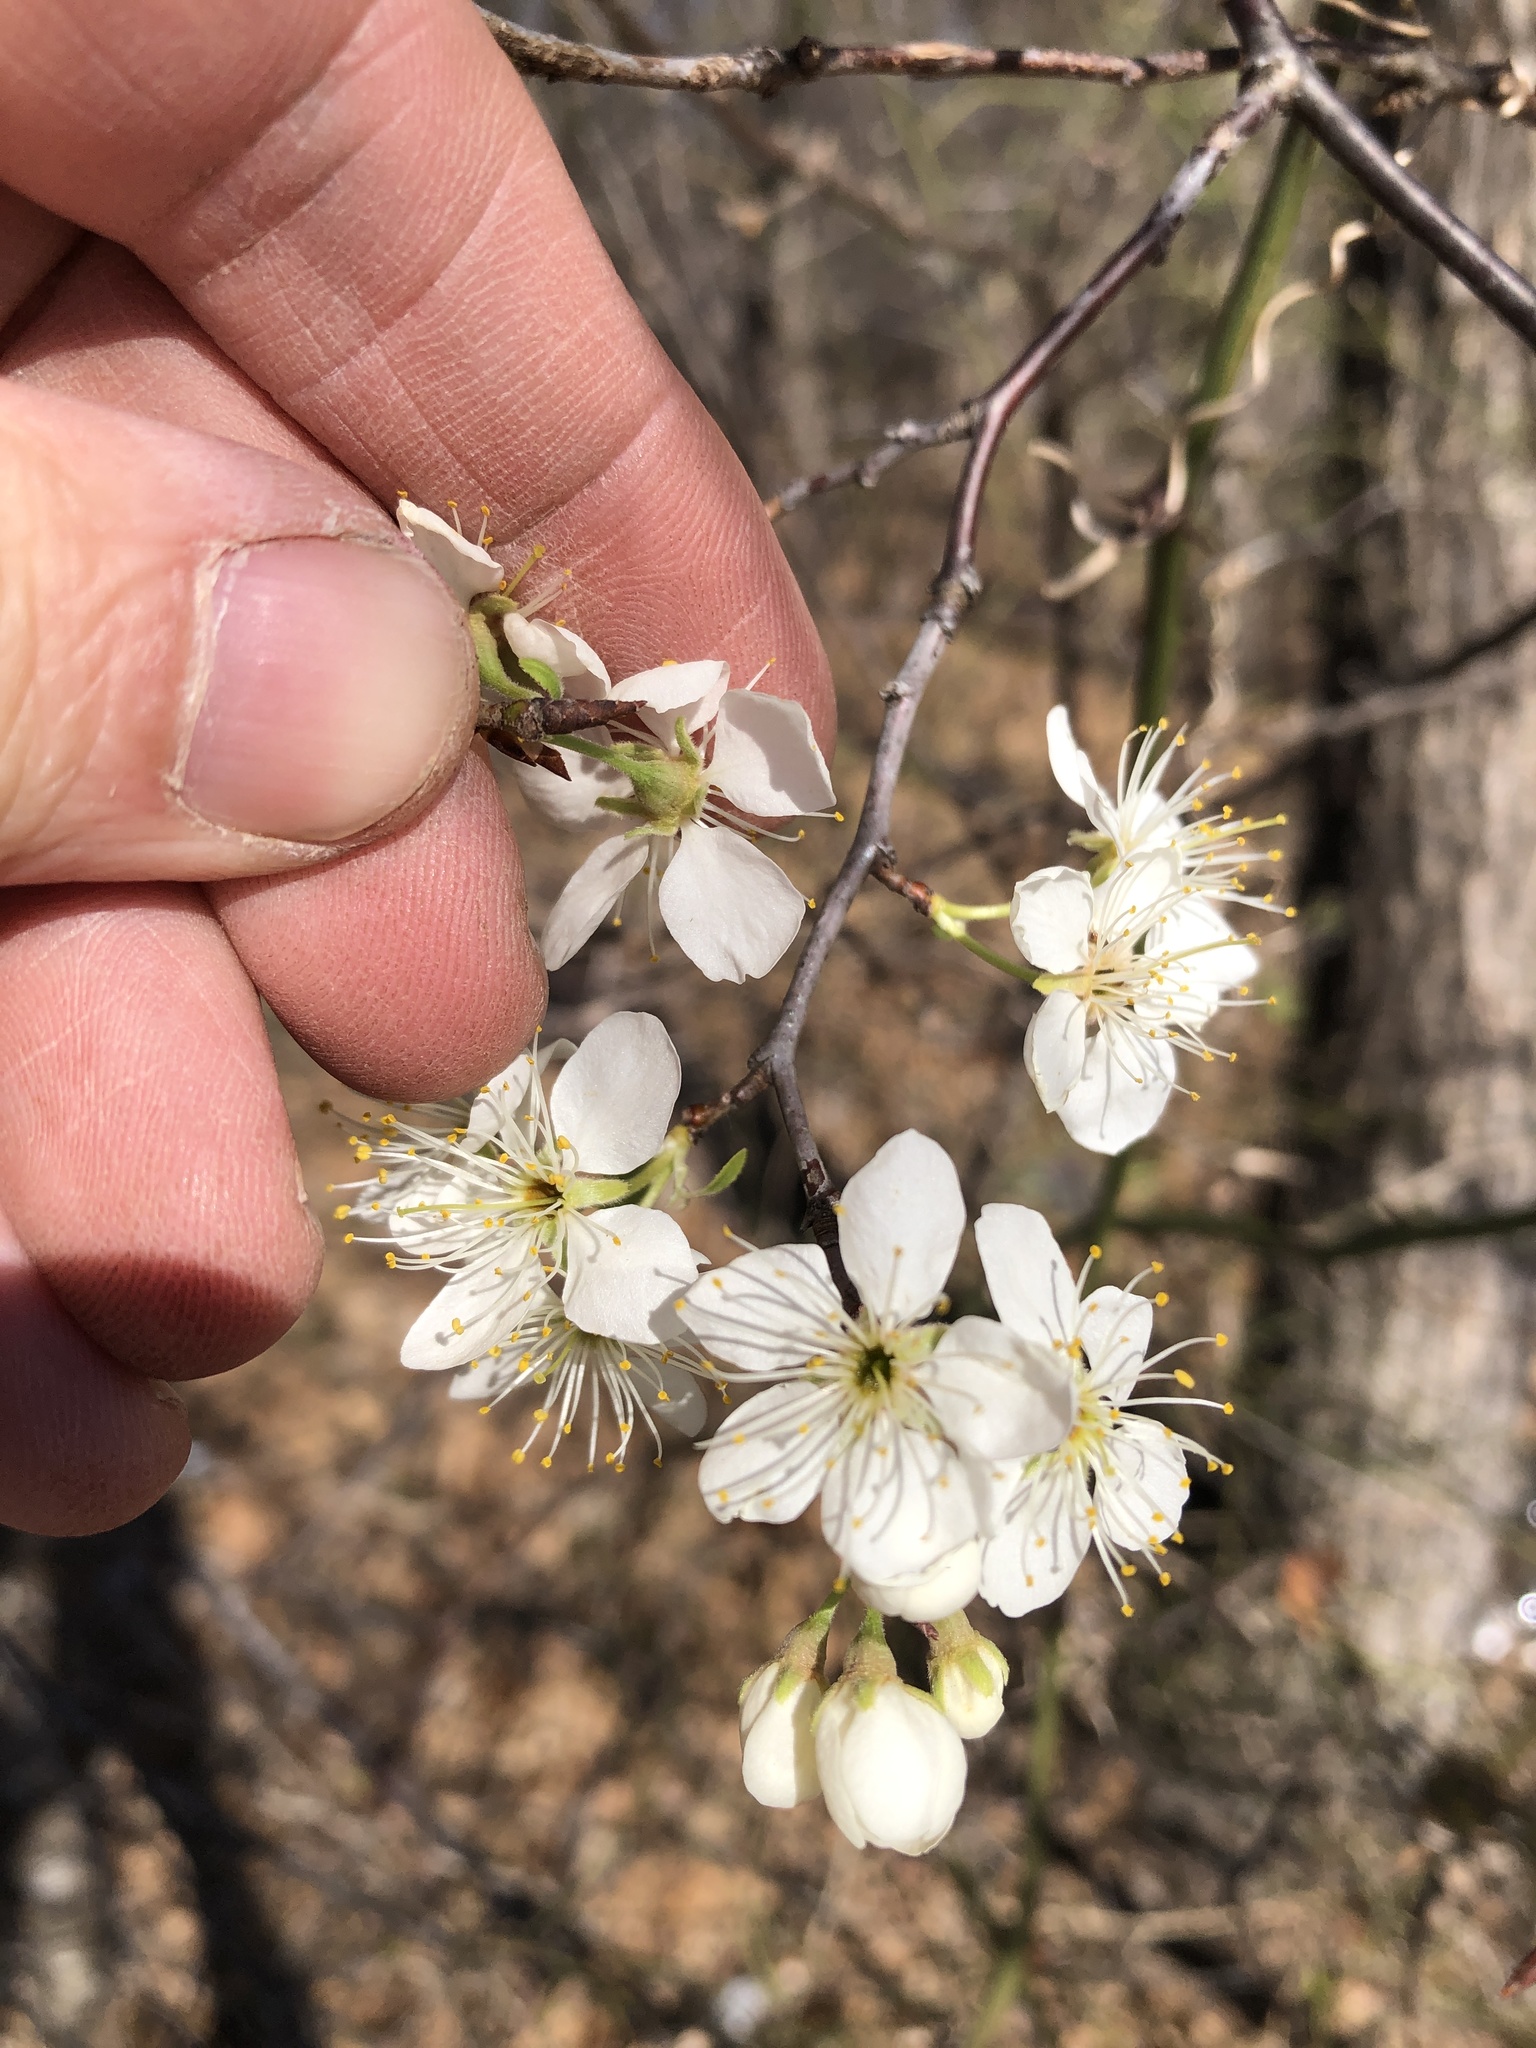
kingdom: Plantae
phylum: Tracheophyta
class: Magnoliopsida
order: Rosales
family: Rosaceae
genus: Prunus
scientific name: Prunus mexicana
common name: Mexican plum
